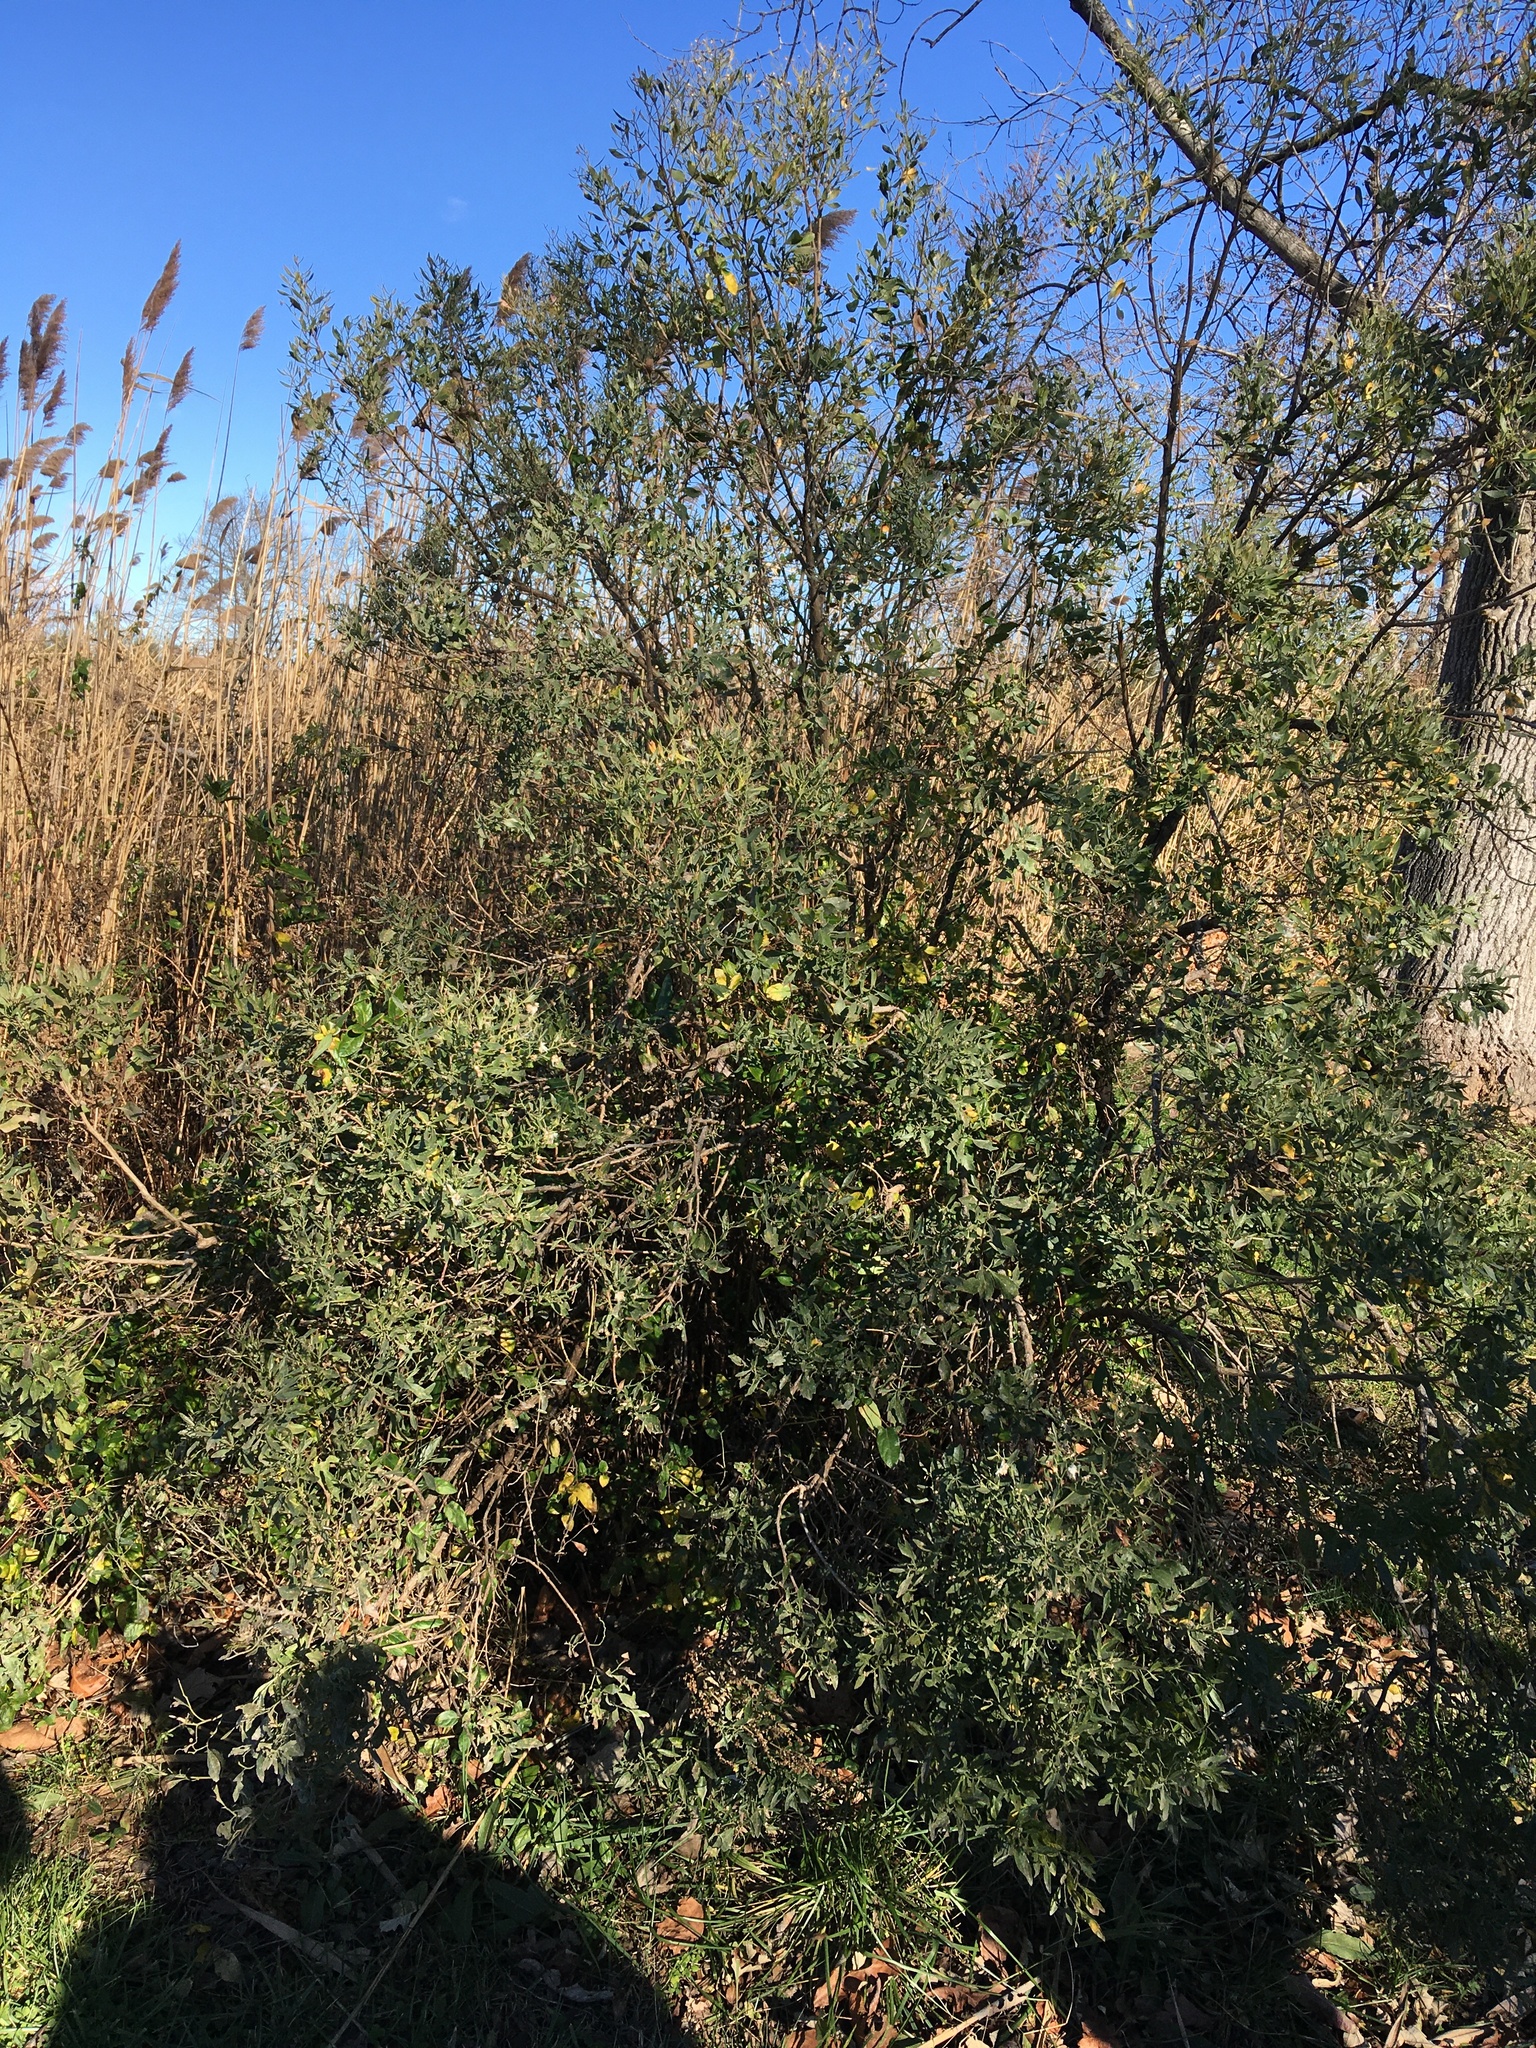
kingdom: Plantae
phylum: Tracheophyta
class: Magnoliopsida
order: Asterales
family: Asteraceae
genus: Baccharis
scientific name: Baccharis halimifolia
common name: Eastern baccharis
